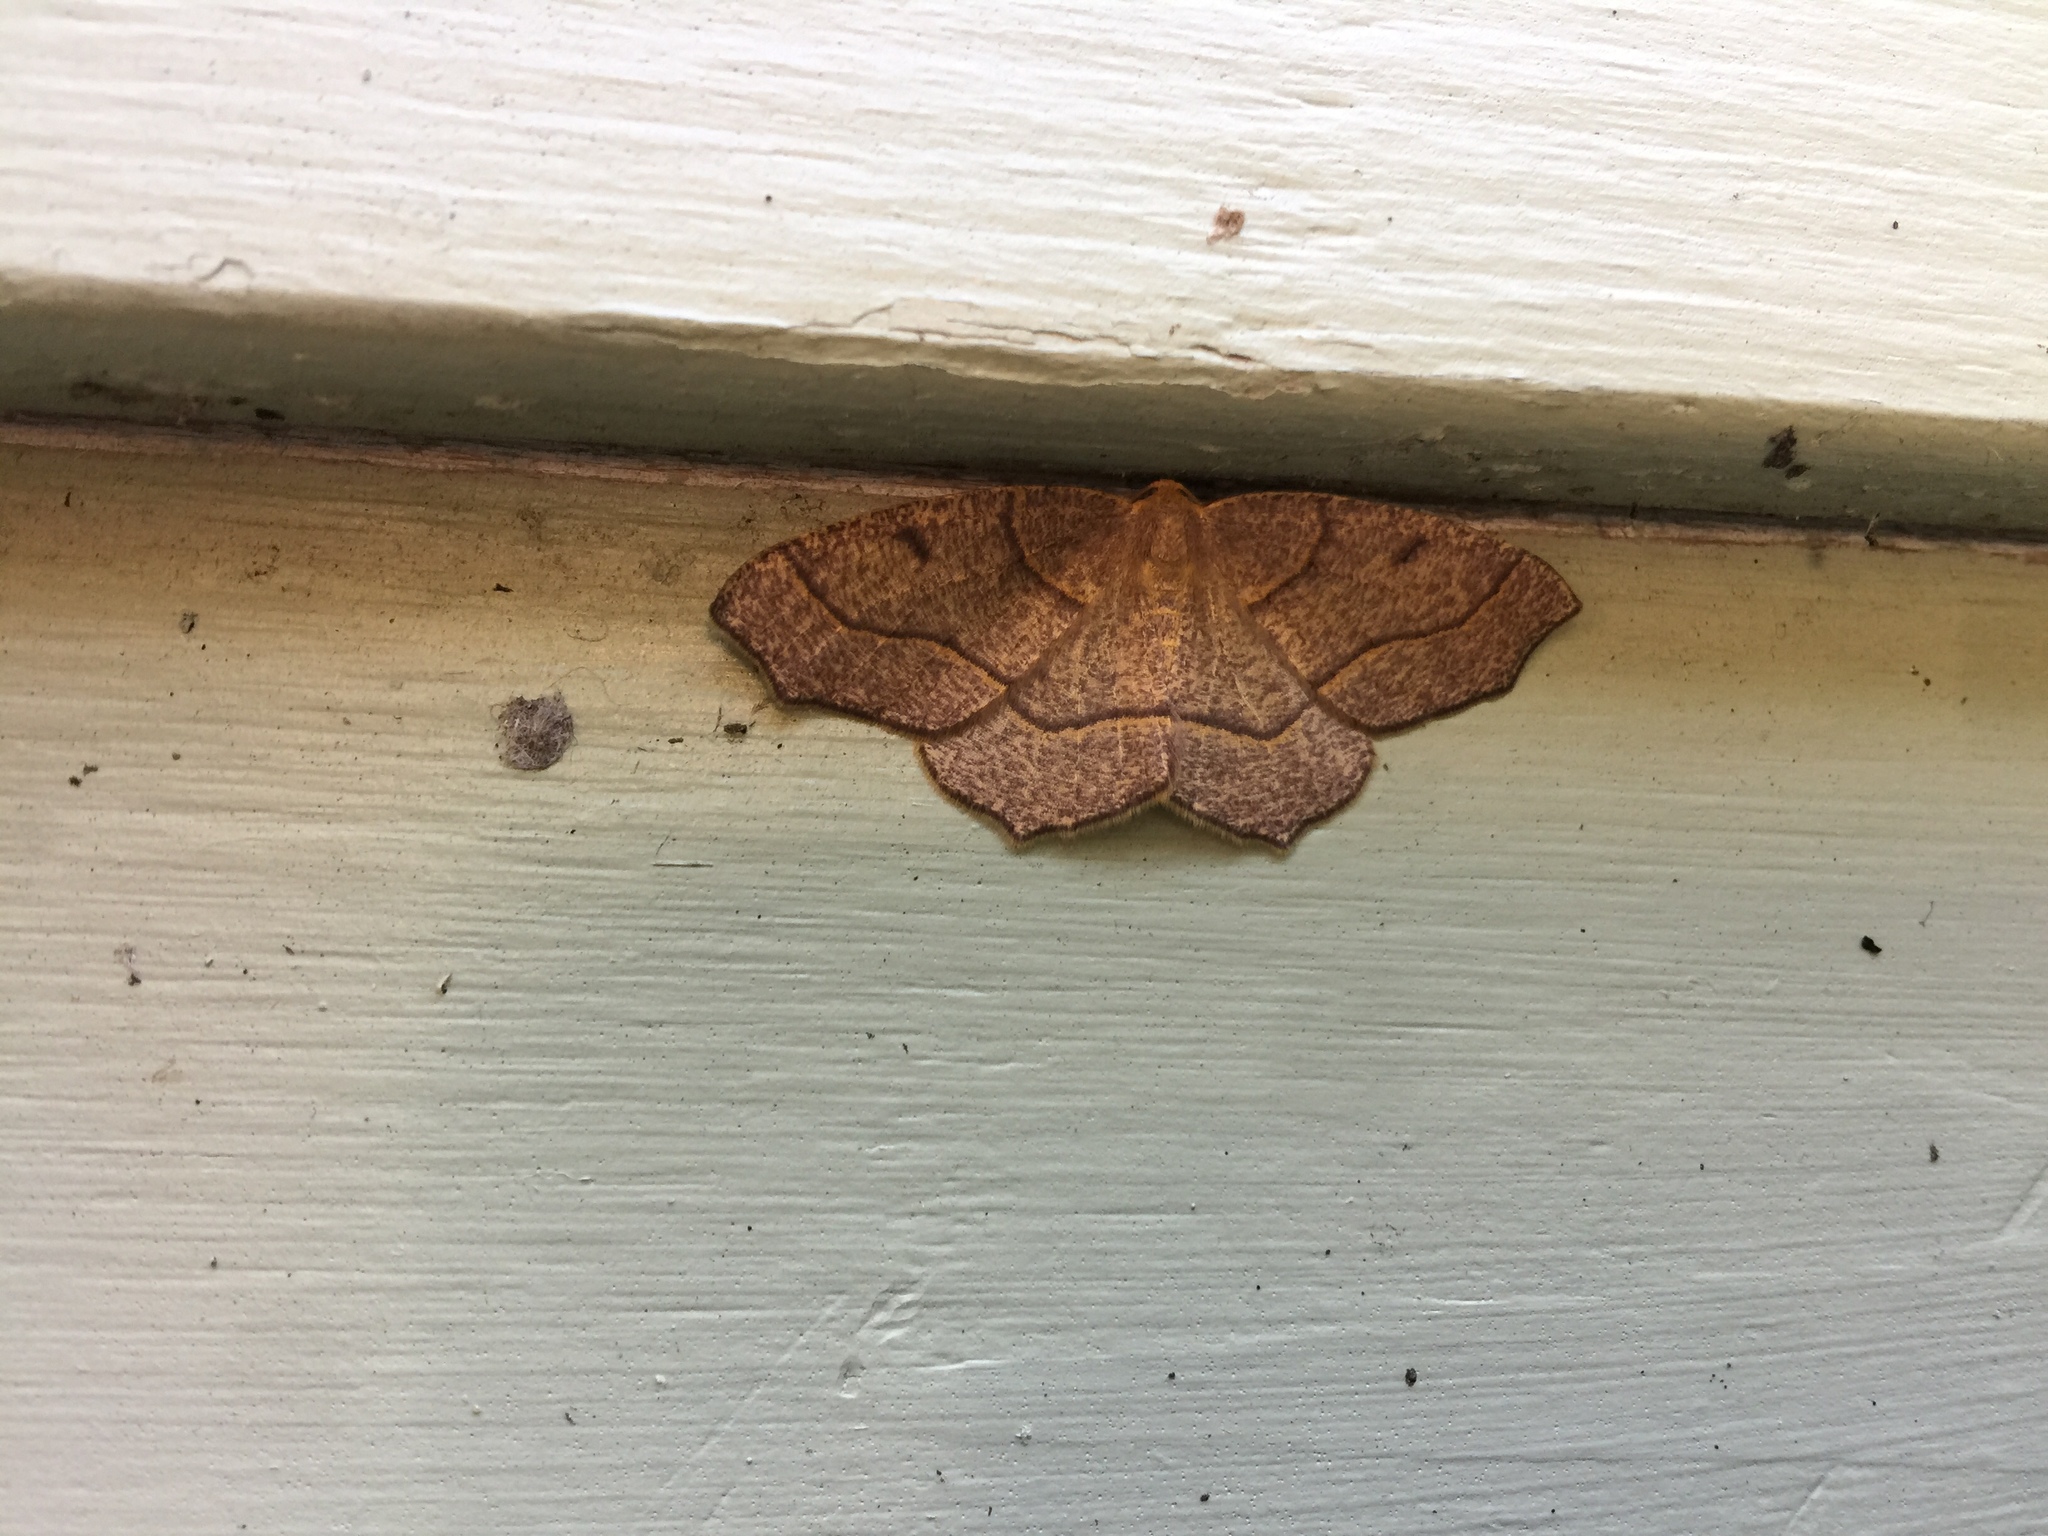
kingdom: Animalia
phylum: Arthropoda
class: Insecta
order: Lepidoptera
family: Geometridae
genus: Lambdina
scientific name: Lambdina fiscellaria
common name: Hemlock looper
